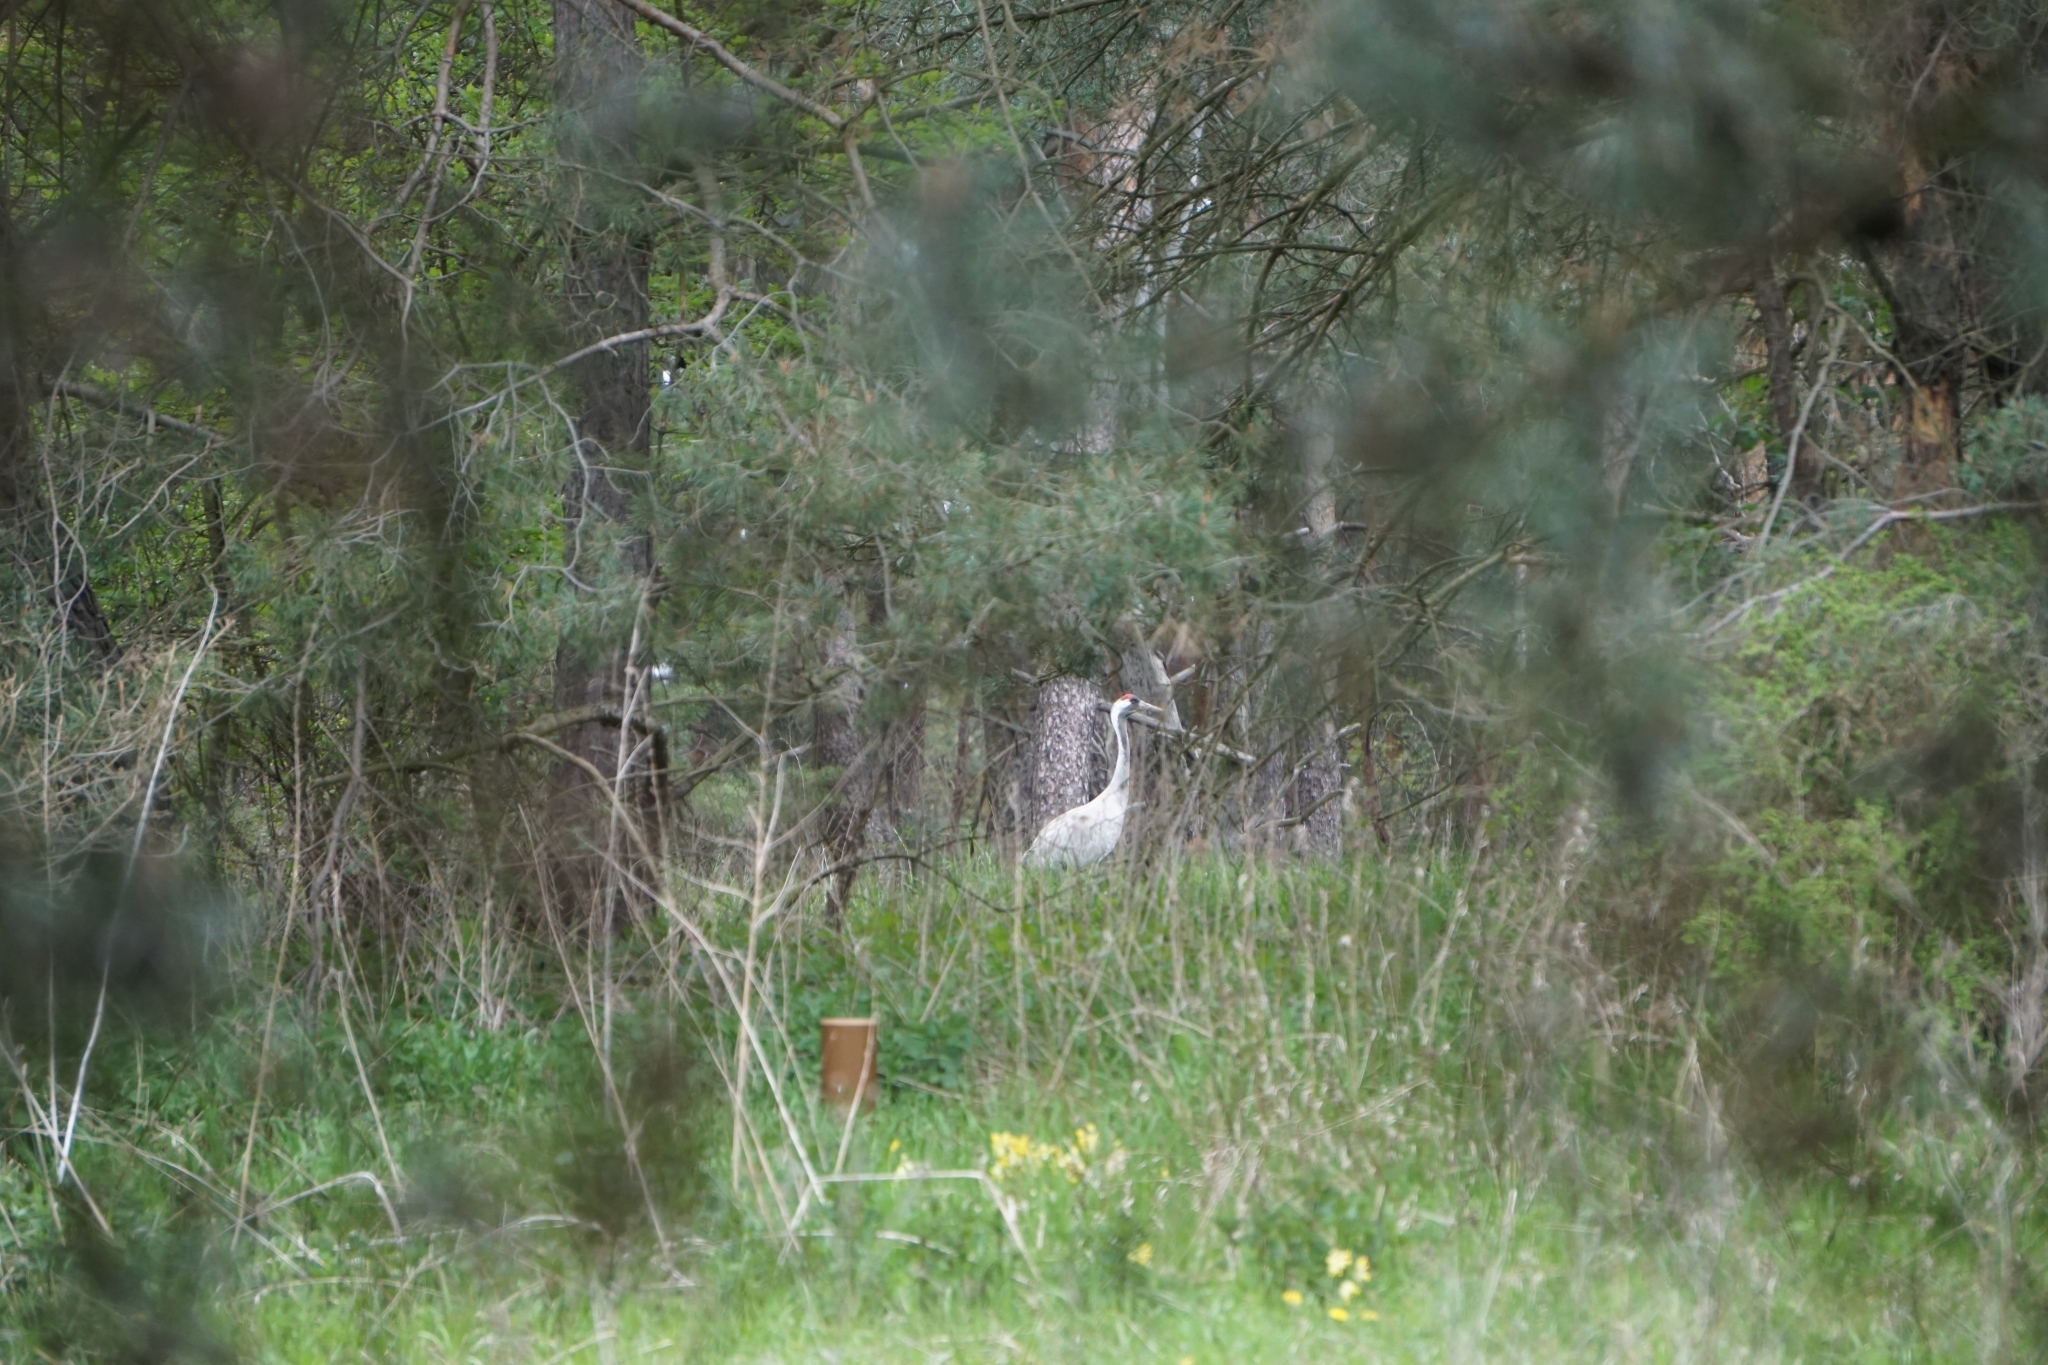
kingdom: Animalia
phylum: Chordata
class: Aves
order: Gruiformes
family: Gruidae
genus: Grus
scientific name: Grus grus
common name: Common crane
